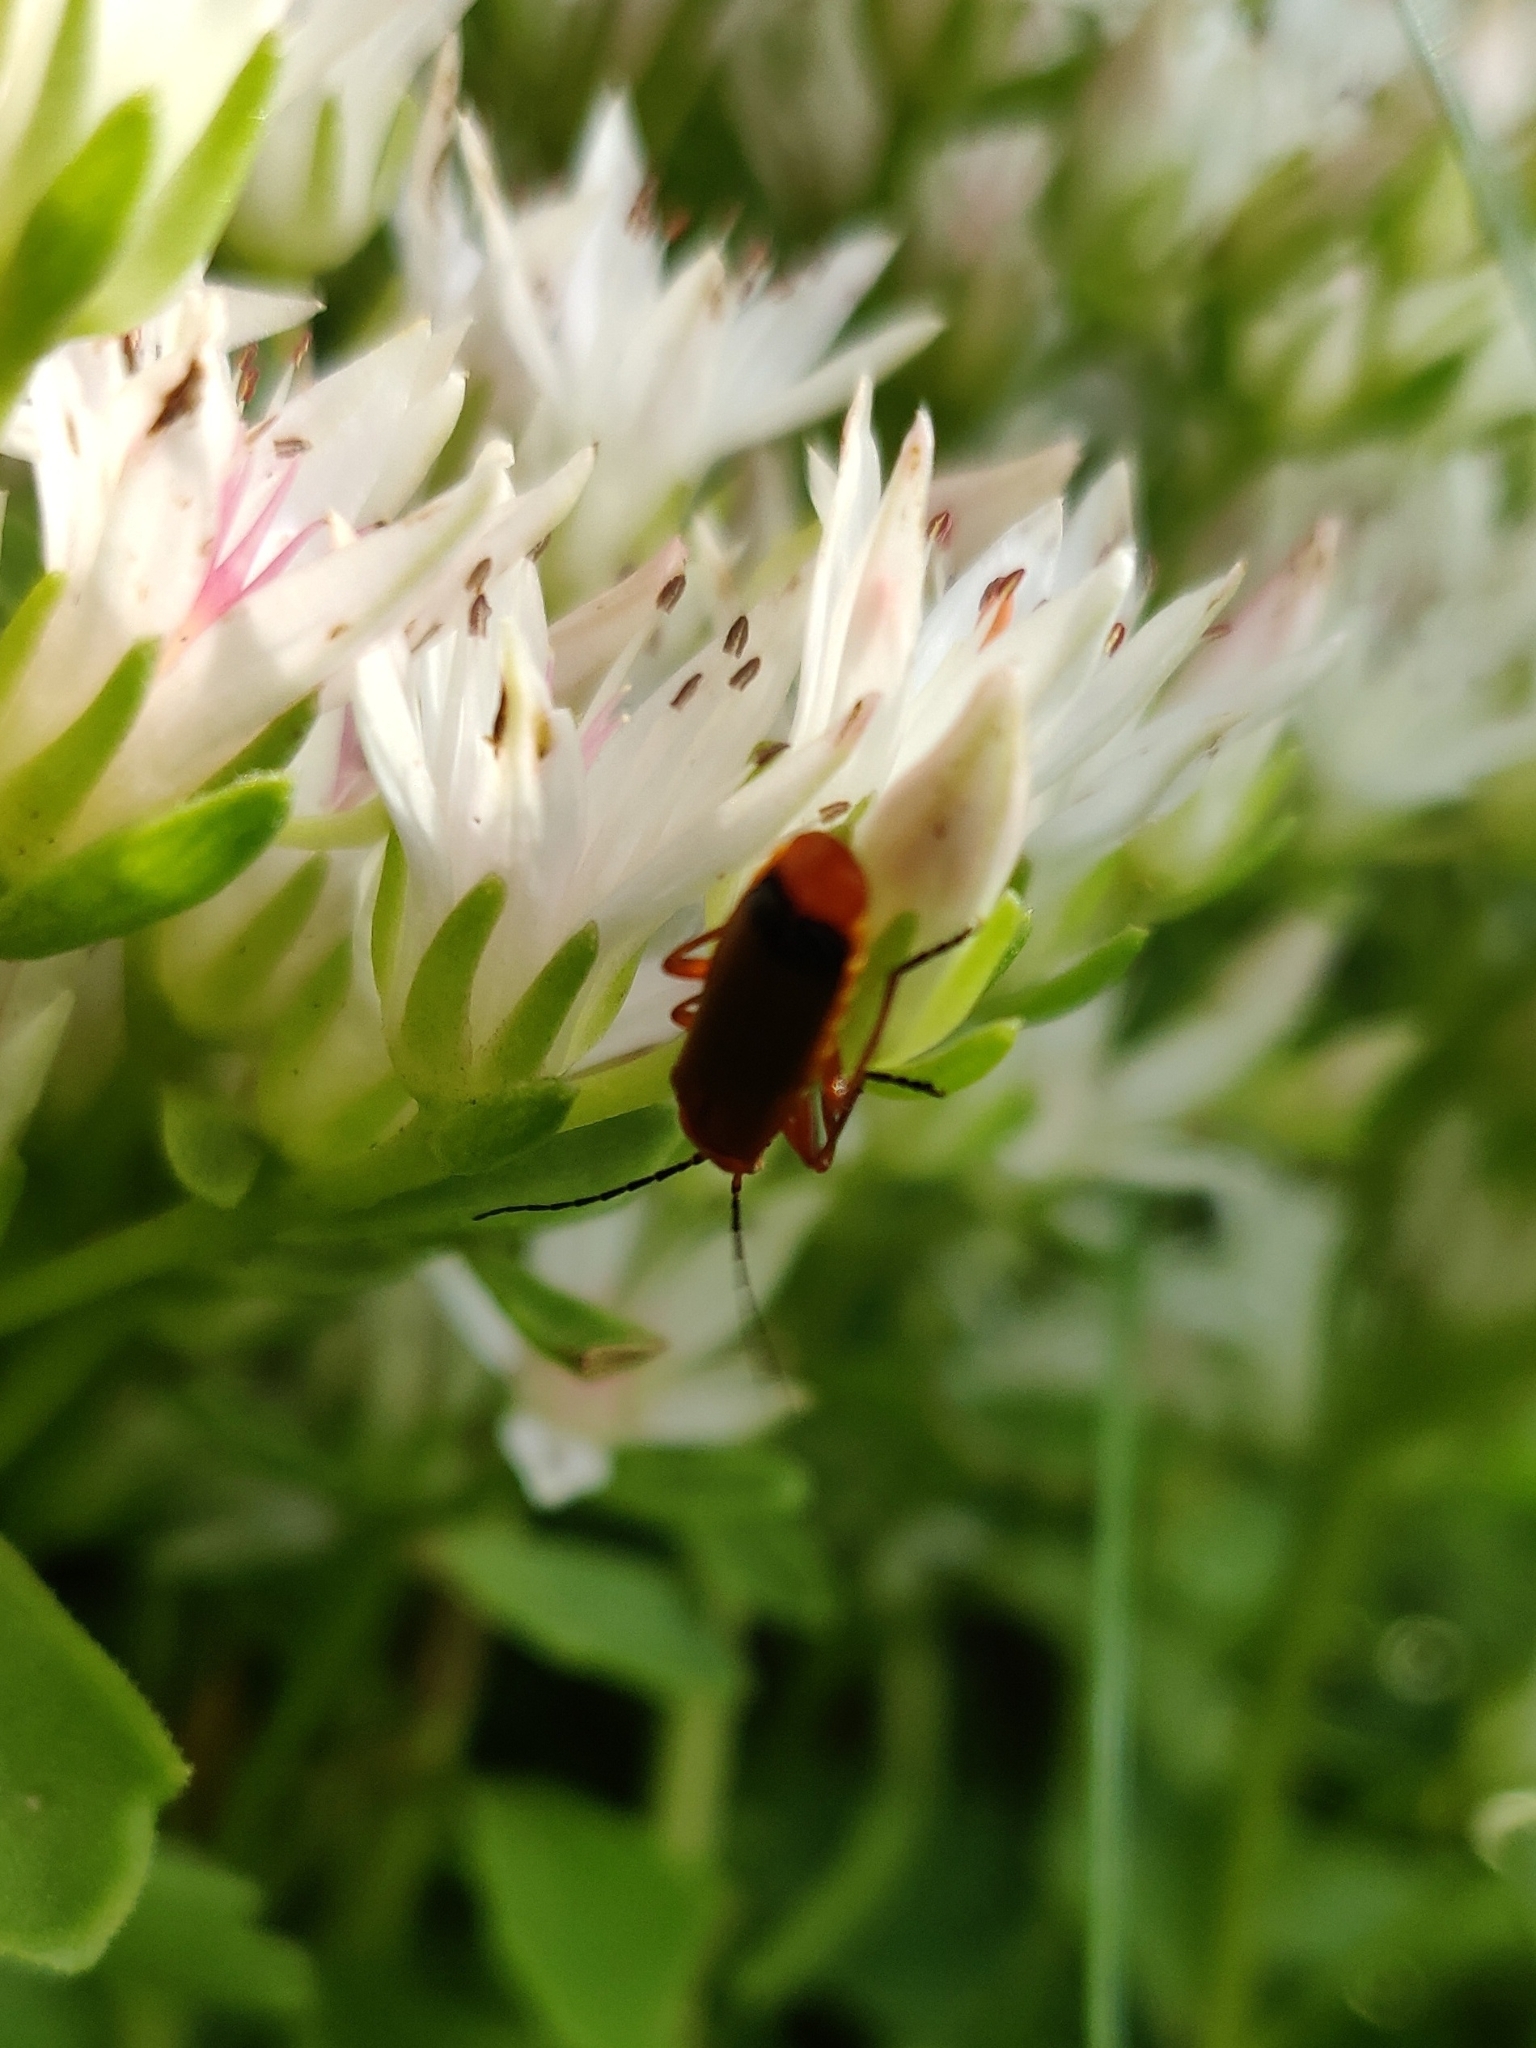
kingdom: Animalia
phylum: Arthropoda
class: Insecta
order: Coleoptera
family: Cantharidae
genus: Rhagonycha
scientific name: Rhagonycha fulva
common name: Common red soldier beetle
